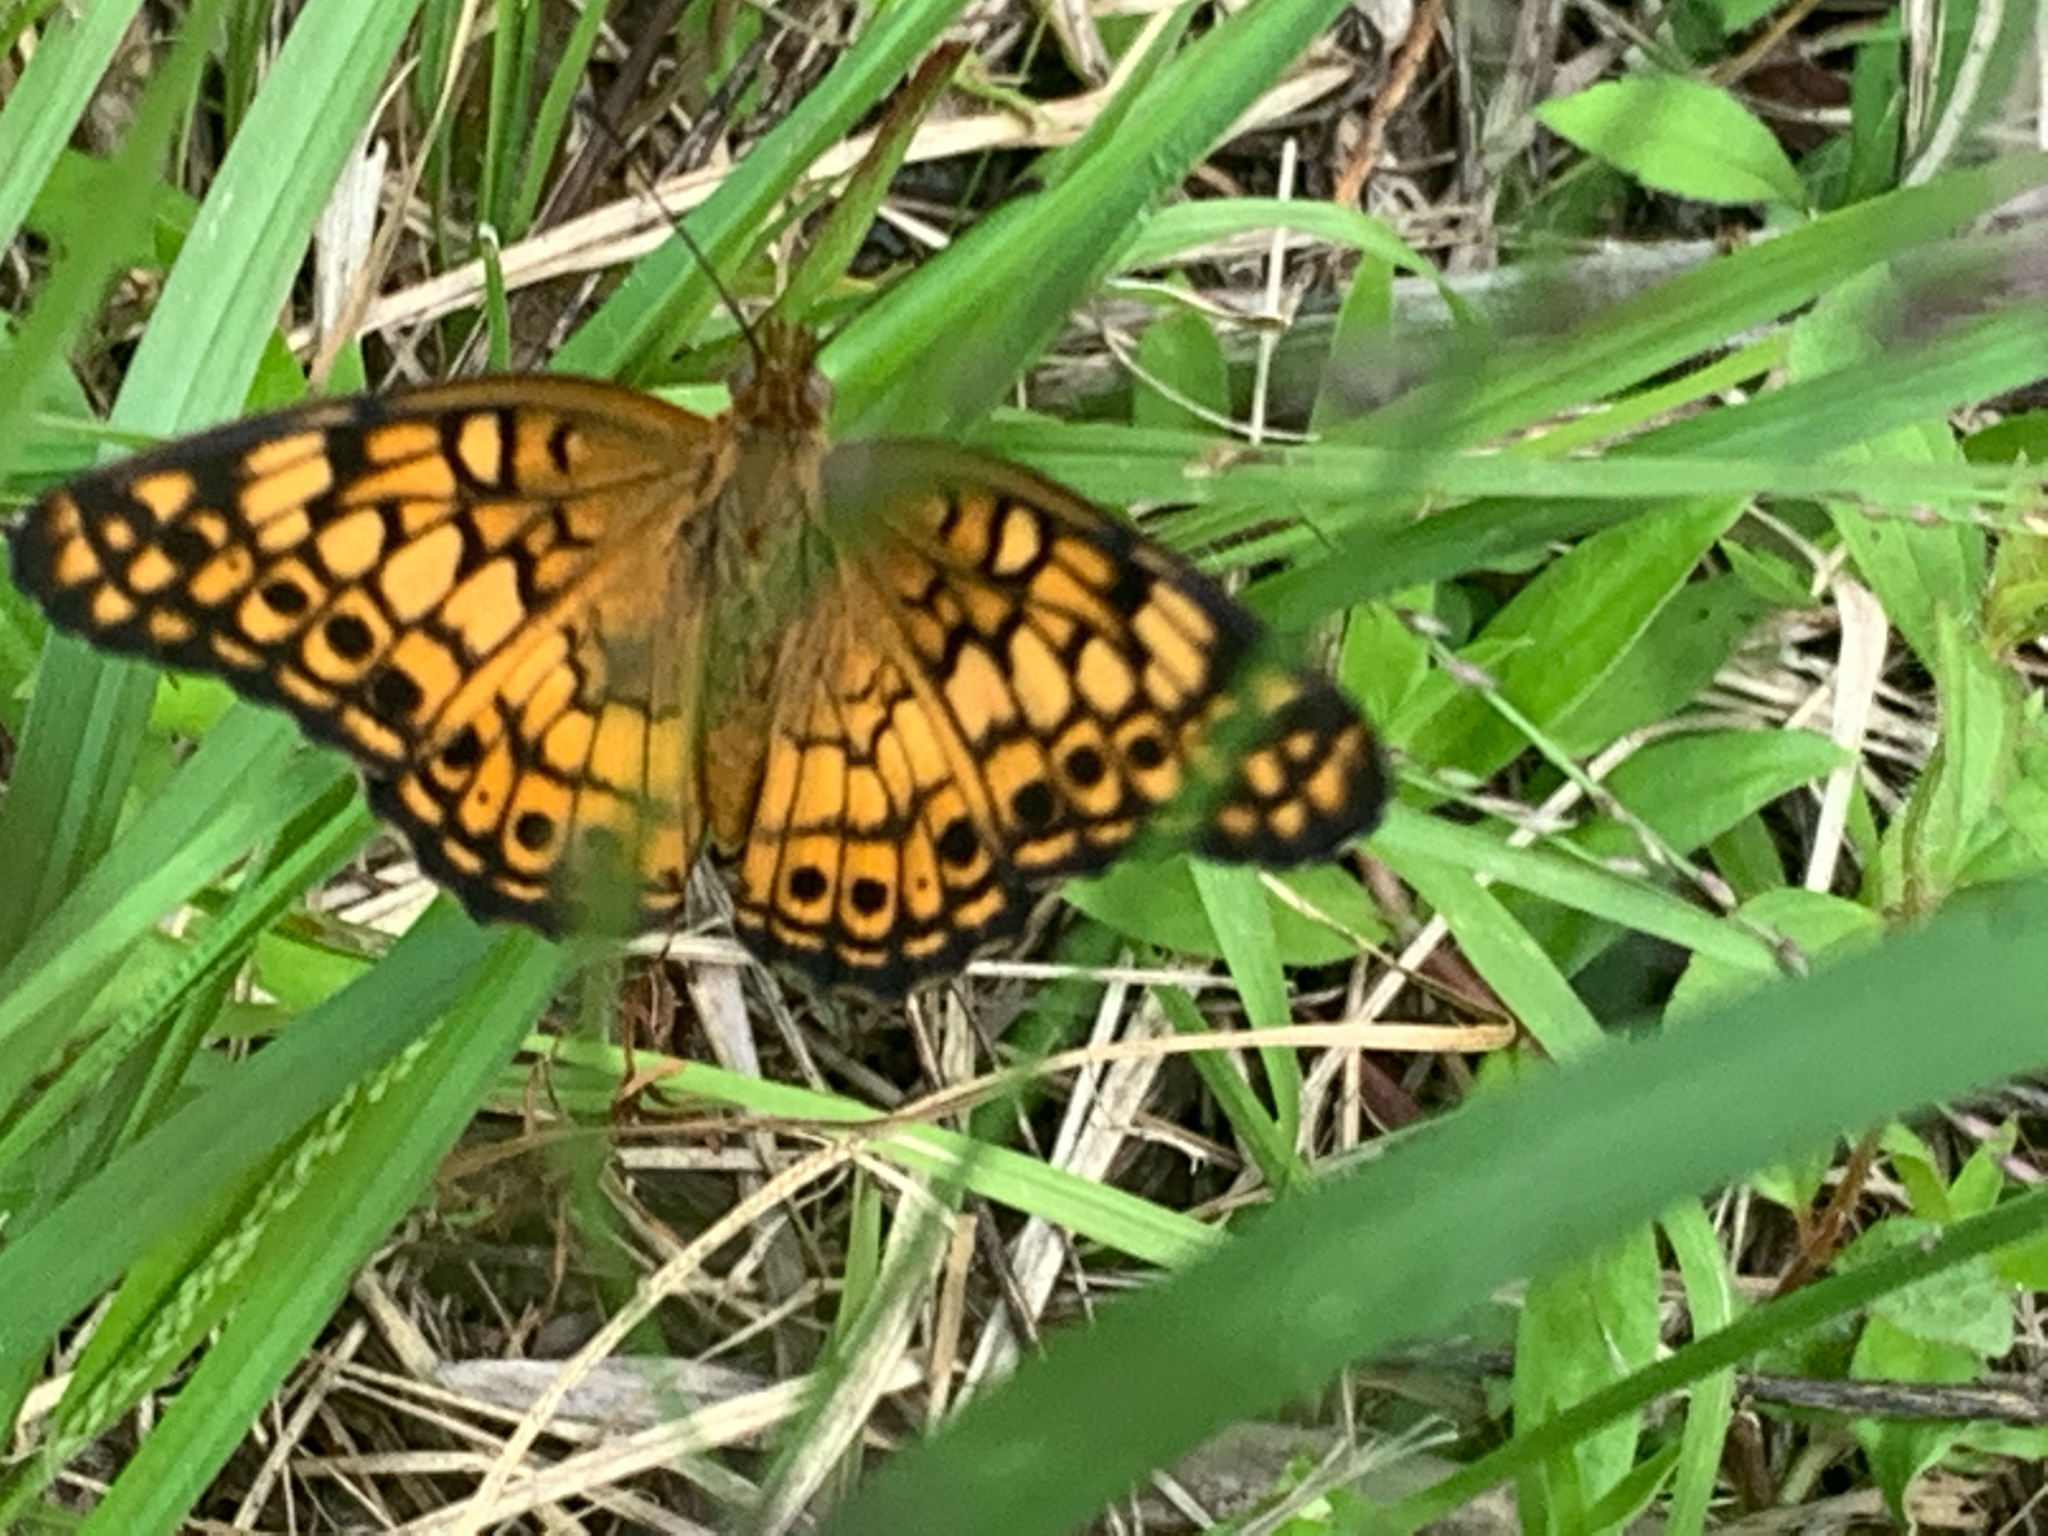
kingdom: Animalia
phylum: Arthropoda
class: Insecta
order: Lepidoptera
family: Nymphalidae
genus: Euptoieta
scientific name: Euptoieta claudia
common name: Variegated fritillary
